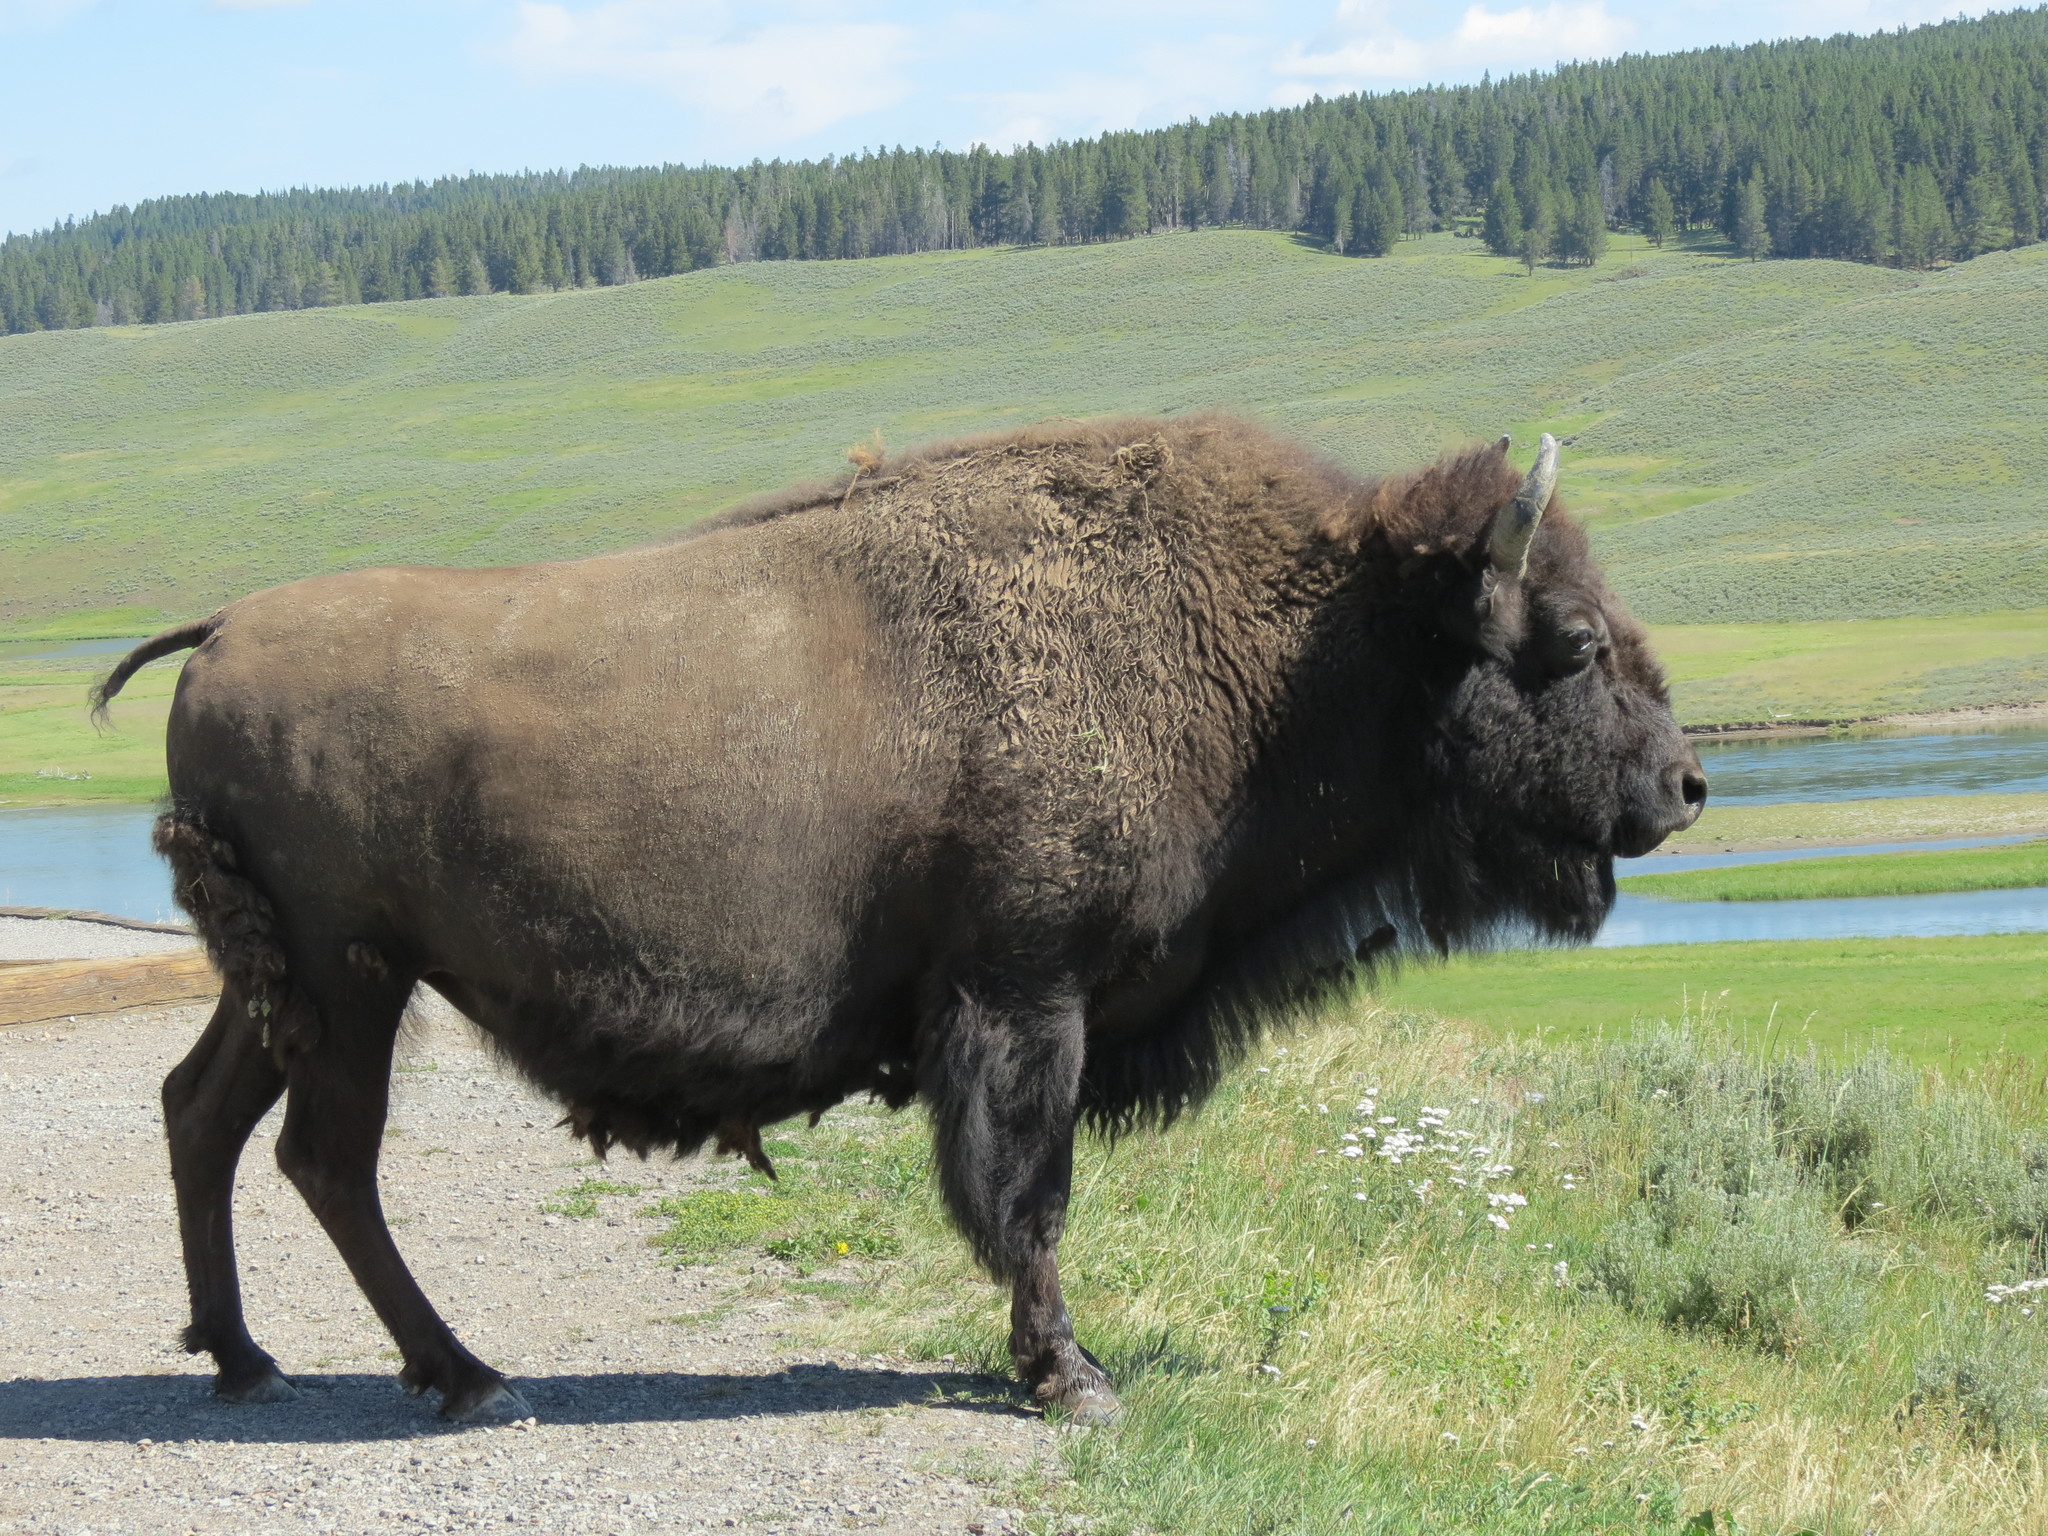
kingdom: Animalia
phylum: Chordata
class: Mammalia
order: Artiodactyla
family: Bovidae
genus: Bison
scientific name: Bison bison
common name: American bison
